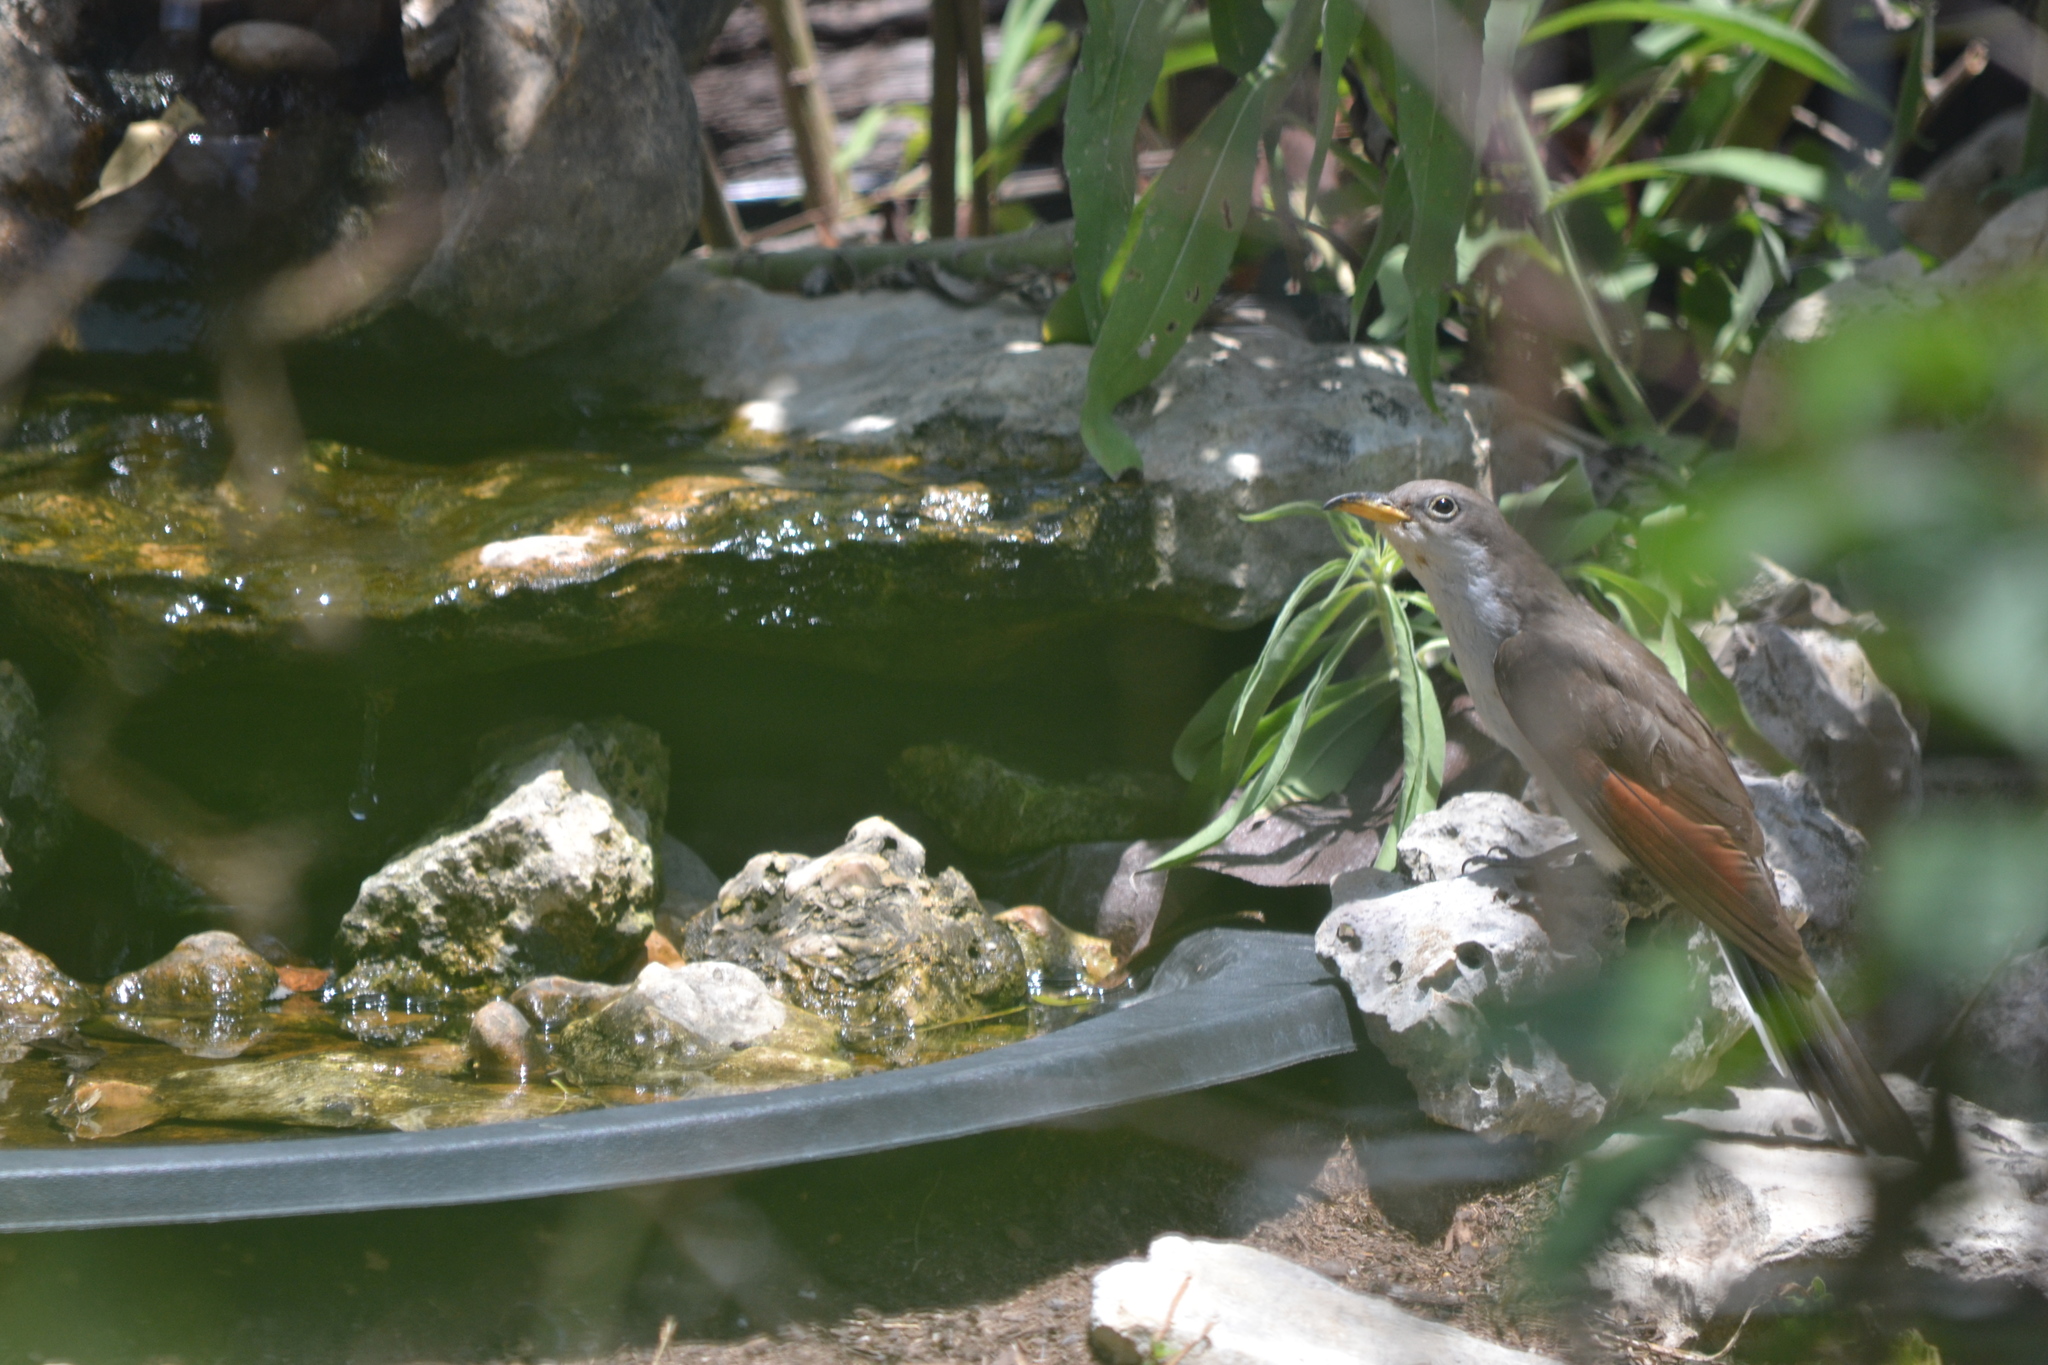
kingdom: Animalia
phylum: Chordata
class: Aves
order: Cuculiformes
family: Cuculidae
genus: Coccyzus
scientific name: Coccyzus americanus
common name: Yellow-billed cuckoo
